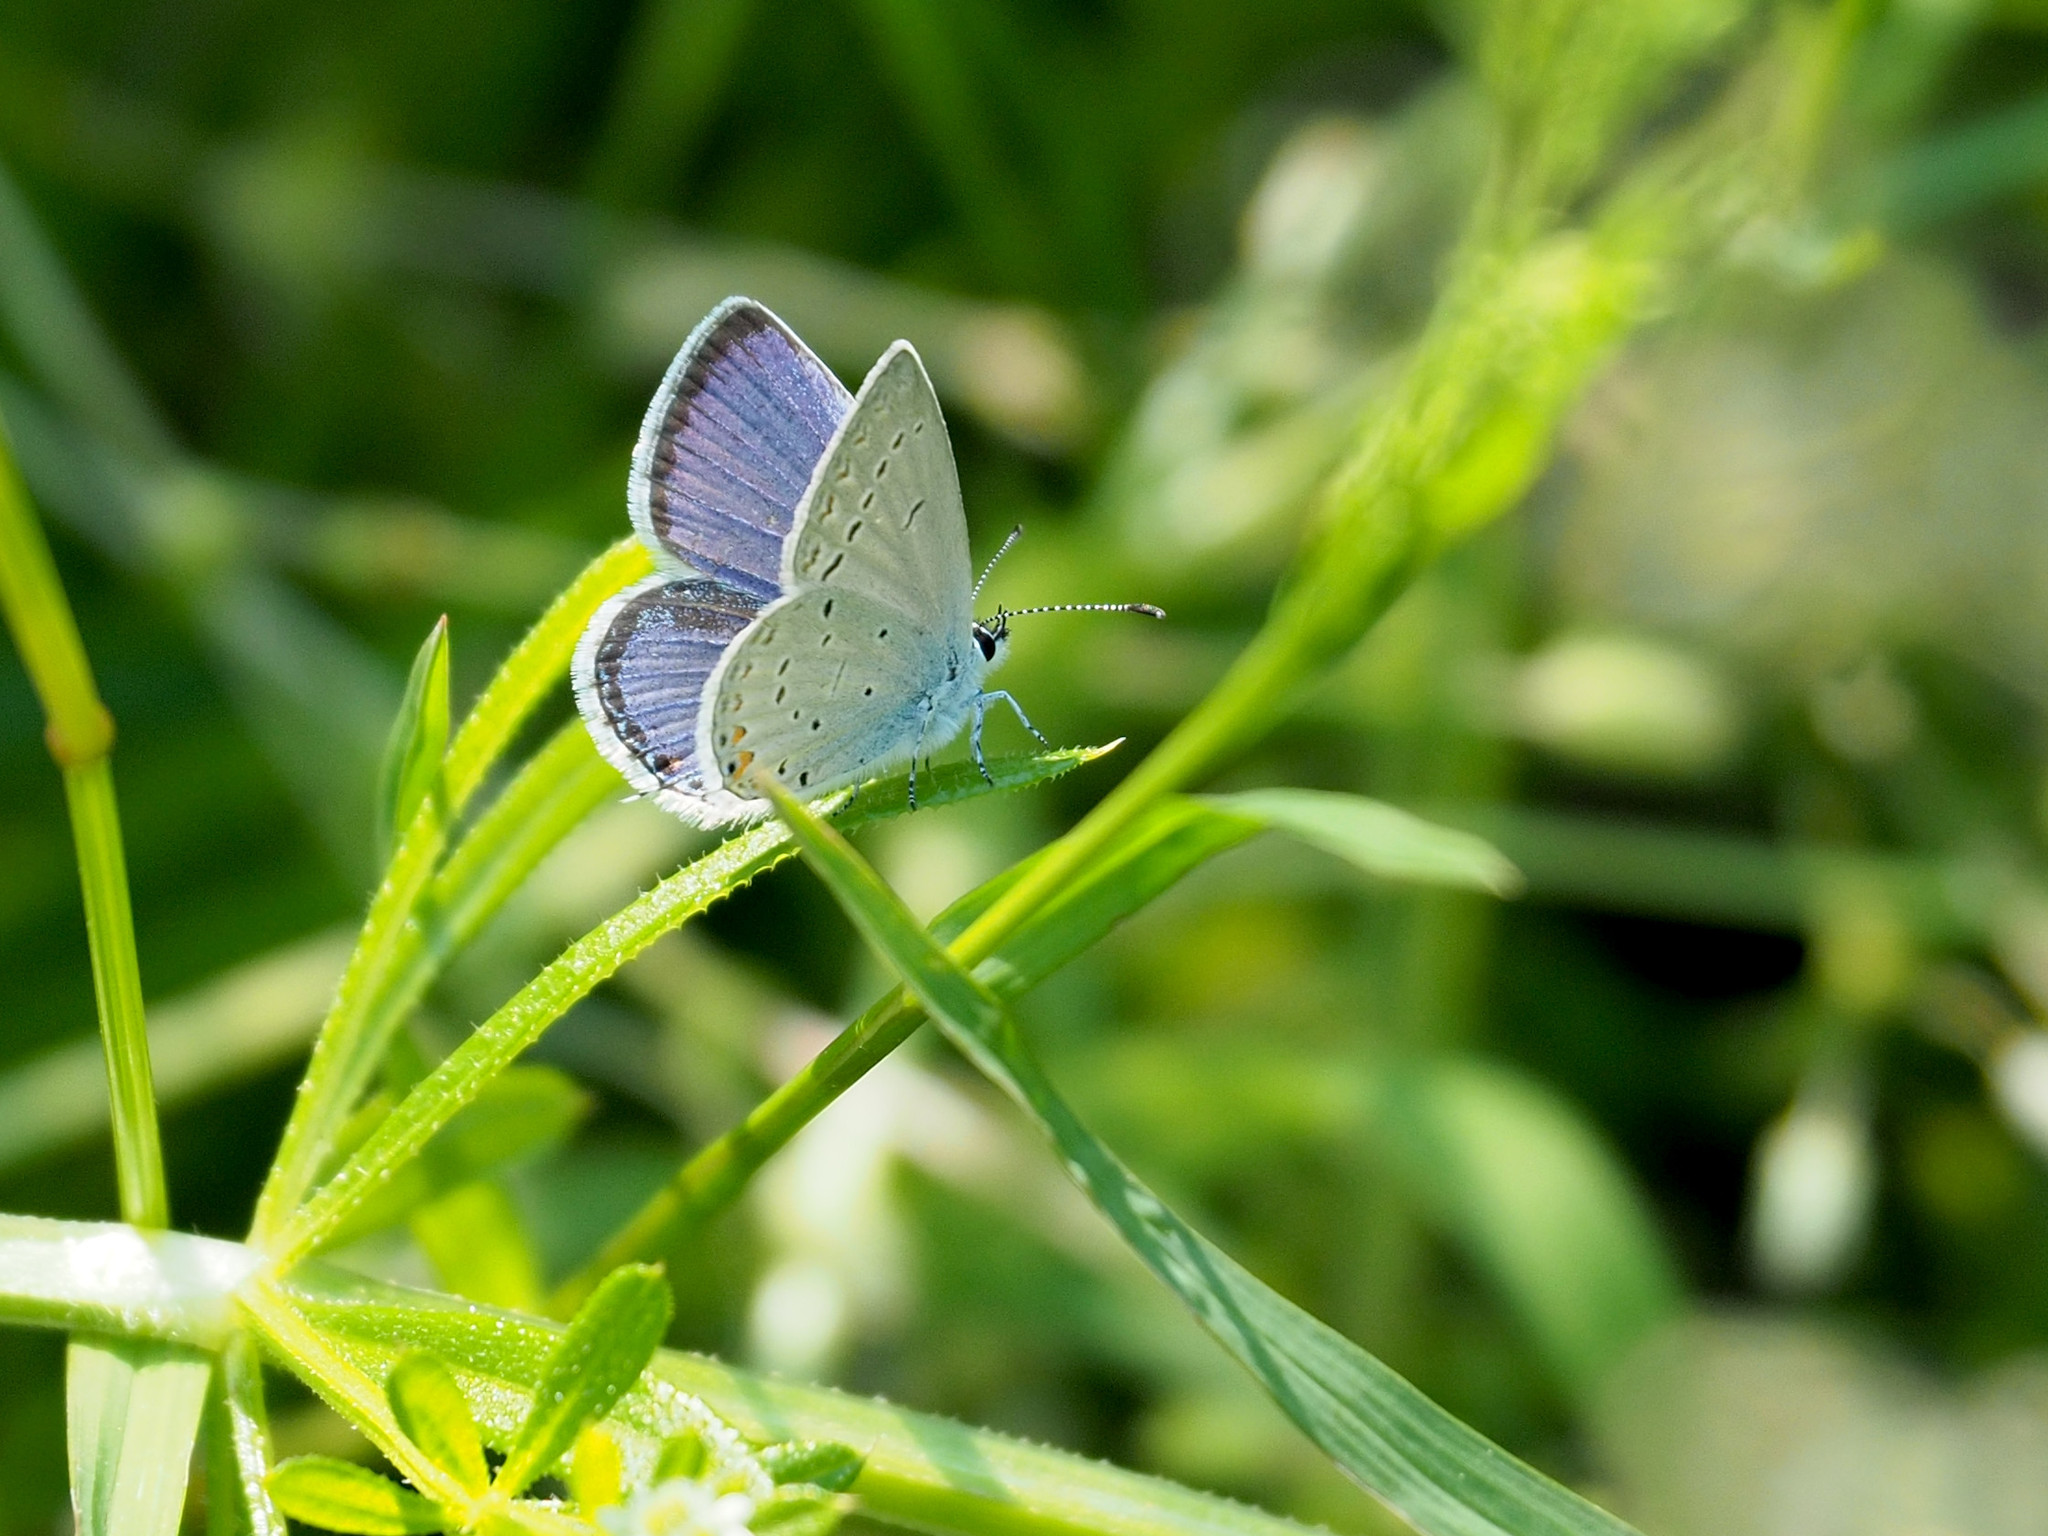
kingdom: Animalia
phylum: Arthropoda
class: Insecta
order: Lepidoptera
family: Lycaenidae
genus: Elkalyce
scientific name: Elkalyce comyntas
